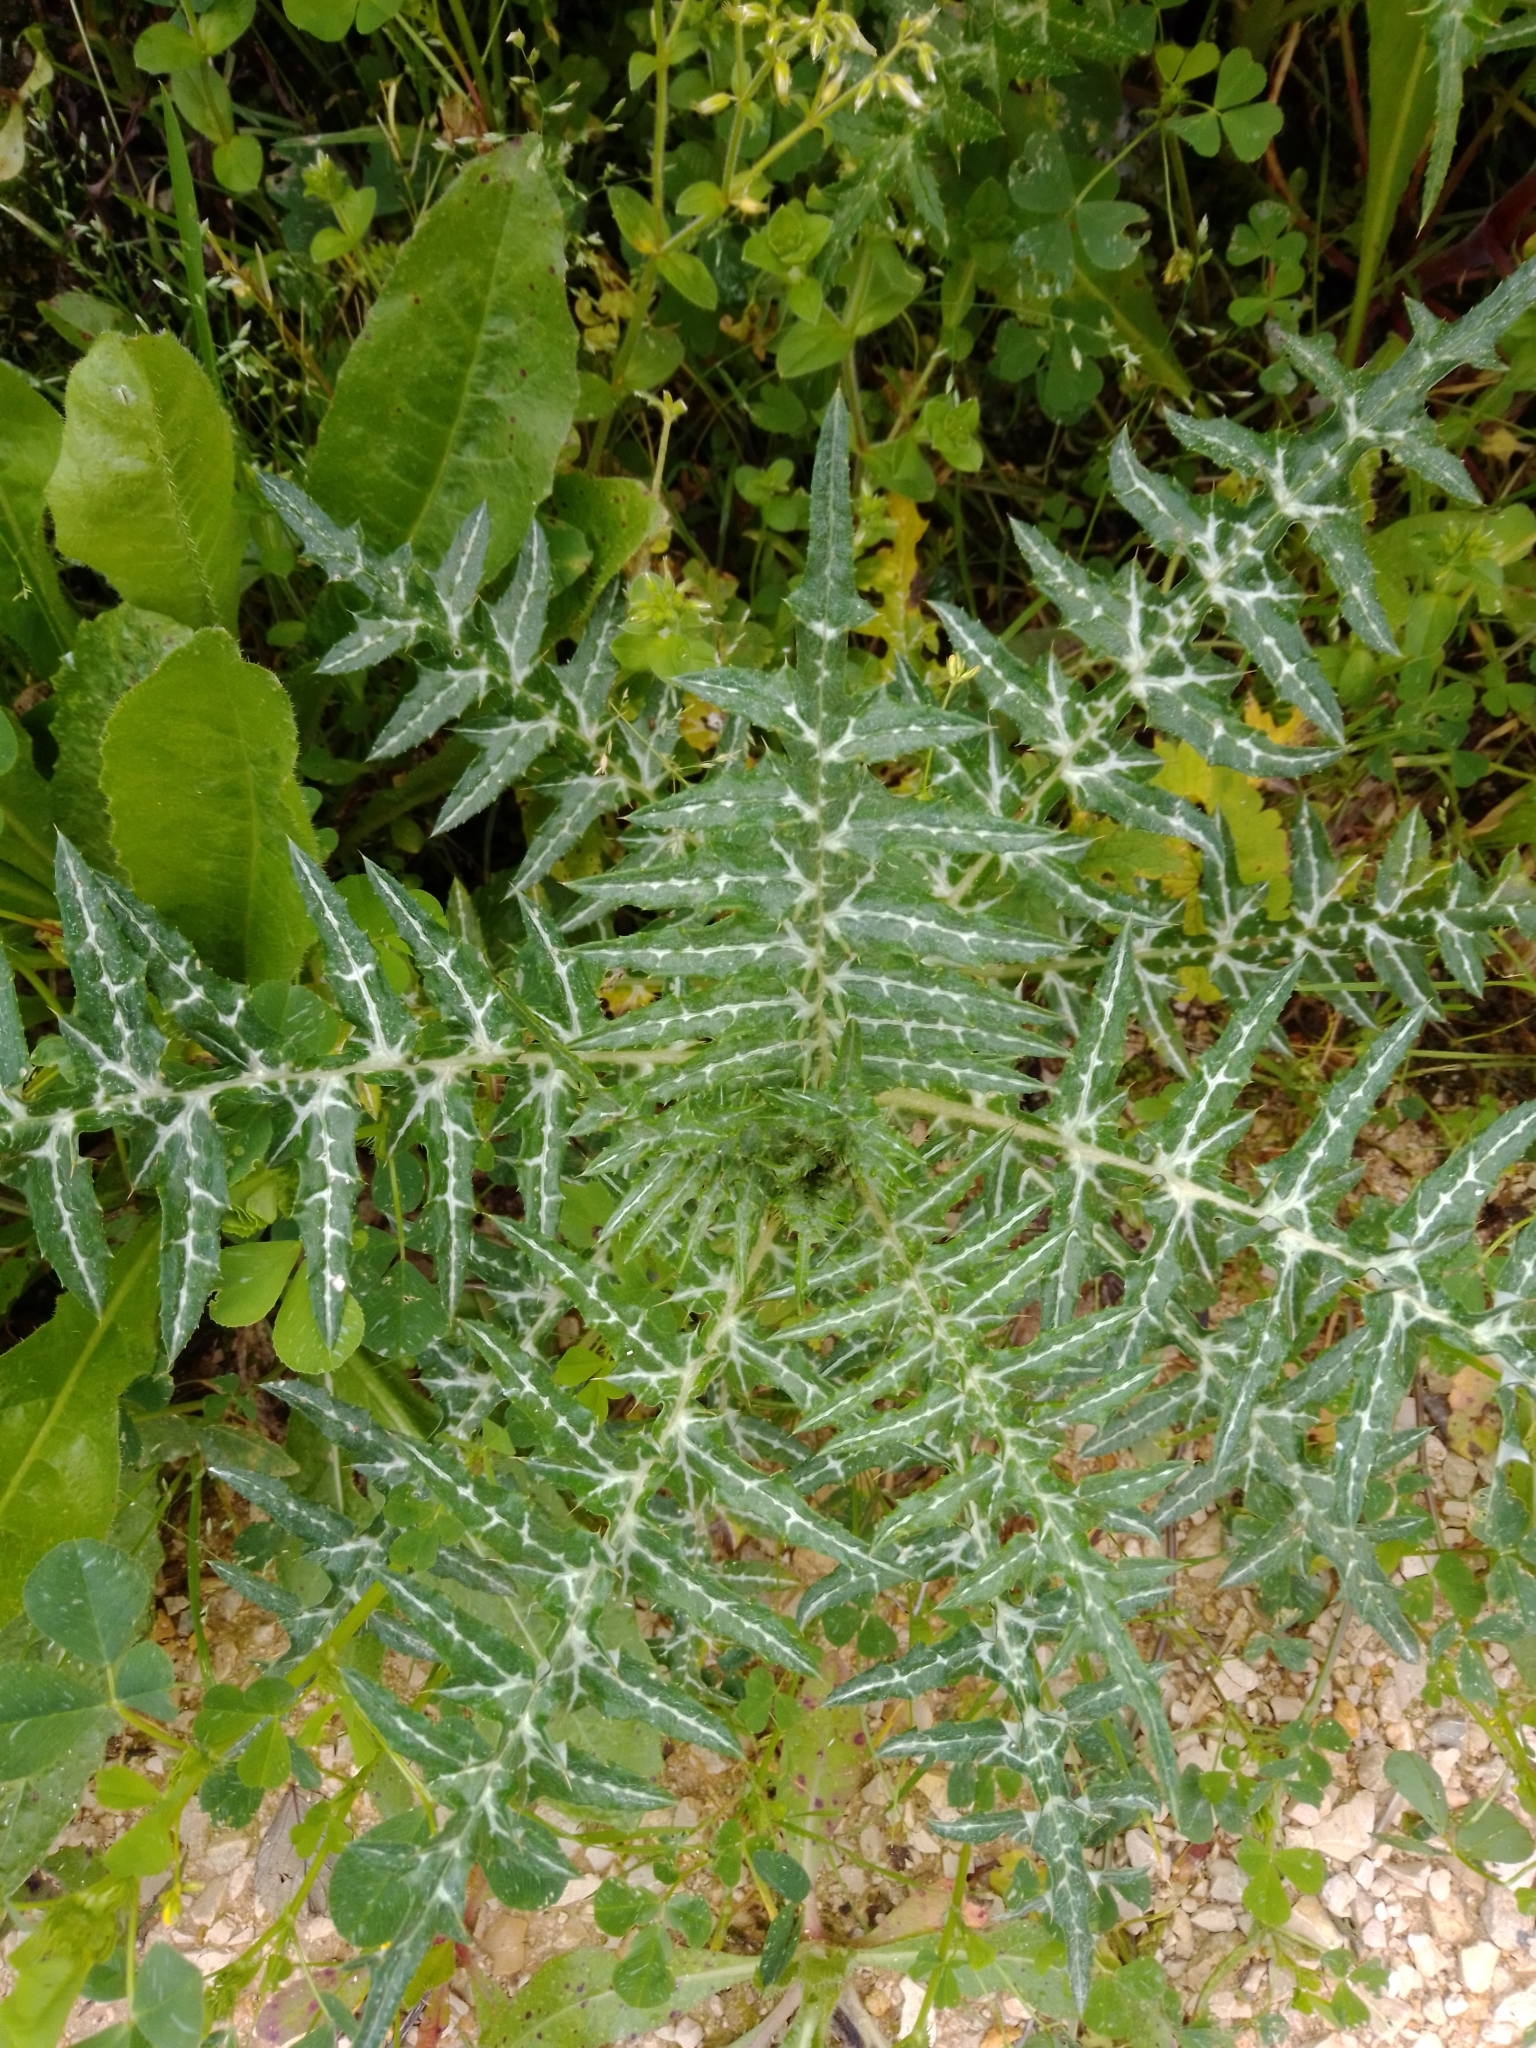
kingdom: Plantae
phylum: Tracheophyta
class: Magnoliopsida
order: Asterales
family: Asteraceae
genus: Galactites
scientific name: Galactites tomentosa
